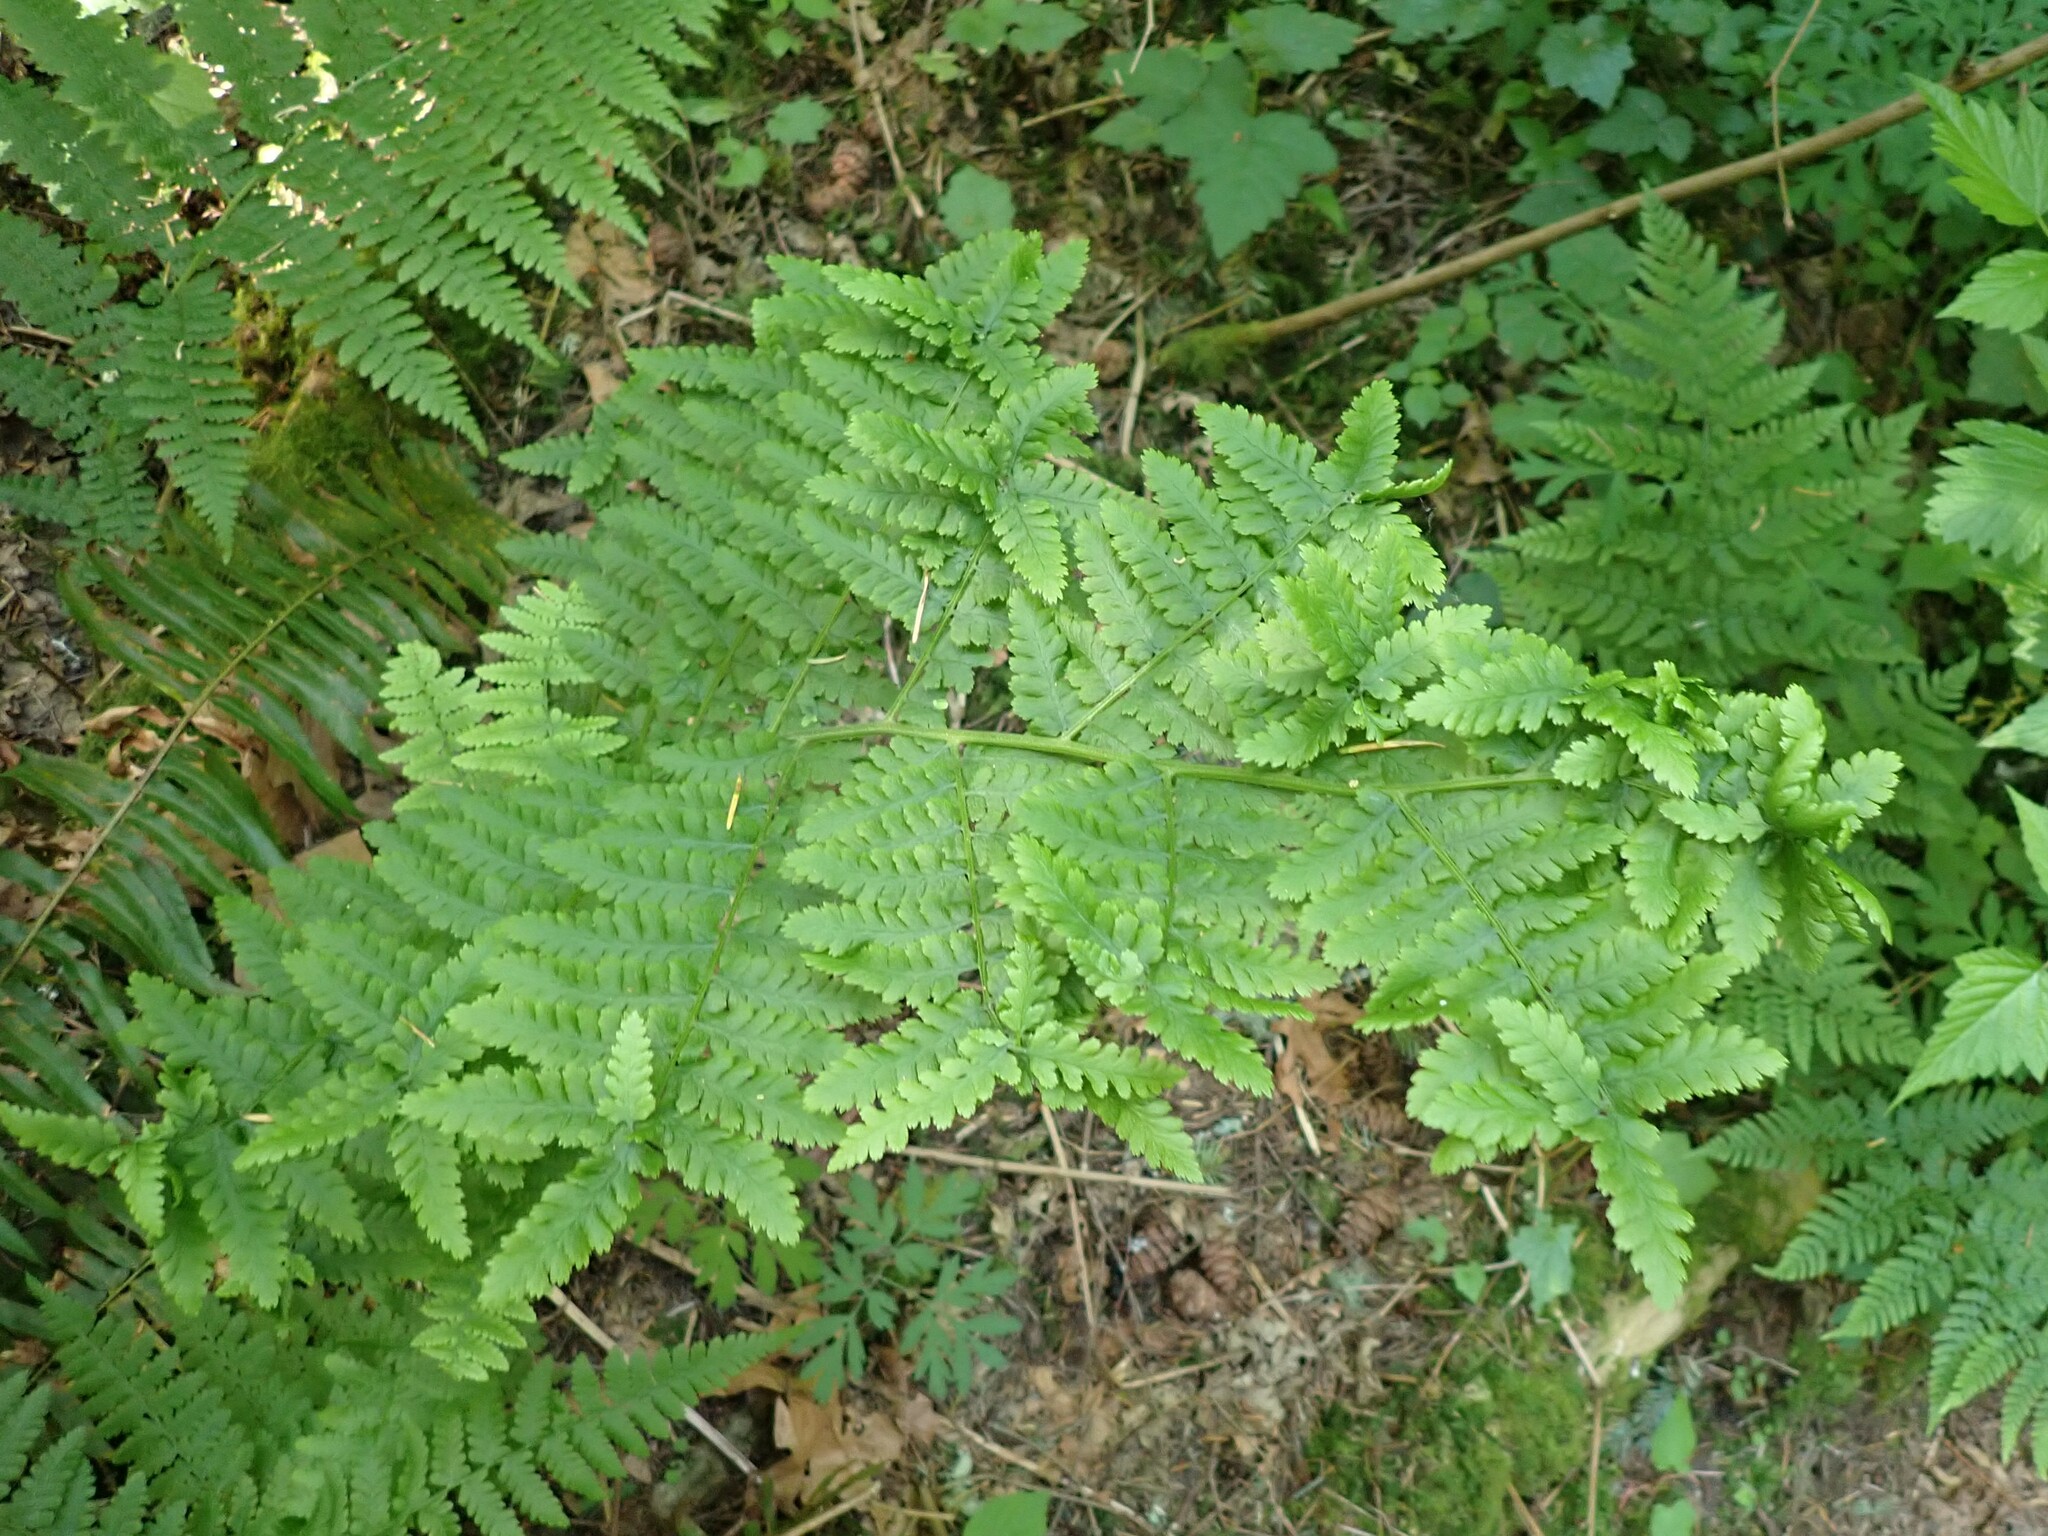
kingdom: Plantae
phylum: Tracheophyta
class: Polypodiopsida
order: Polypodiales
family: Dennstaedtiaceae
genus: Pteridium
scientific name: Pteridium aquilinum
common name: Bracken
